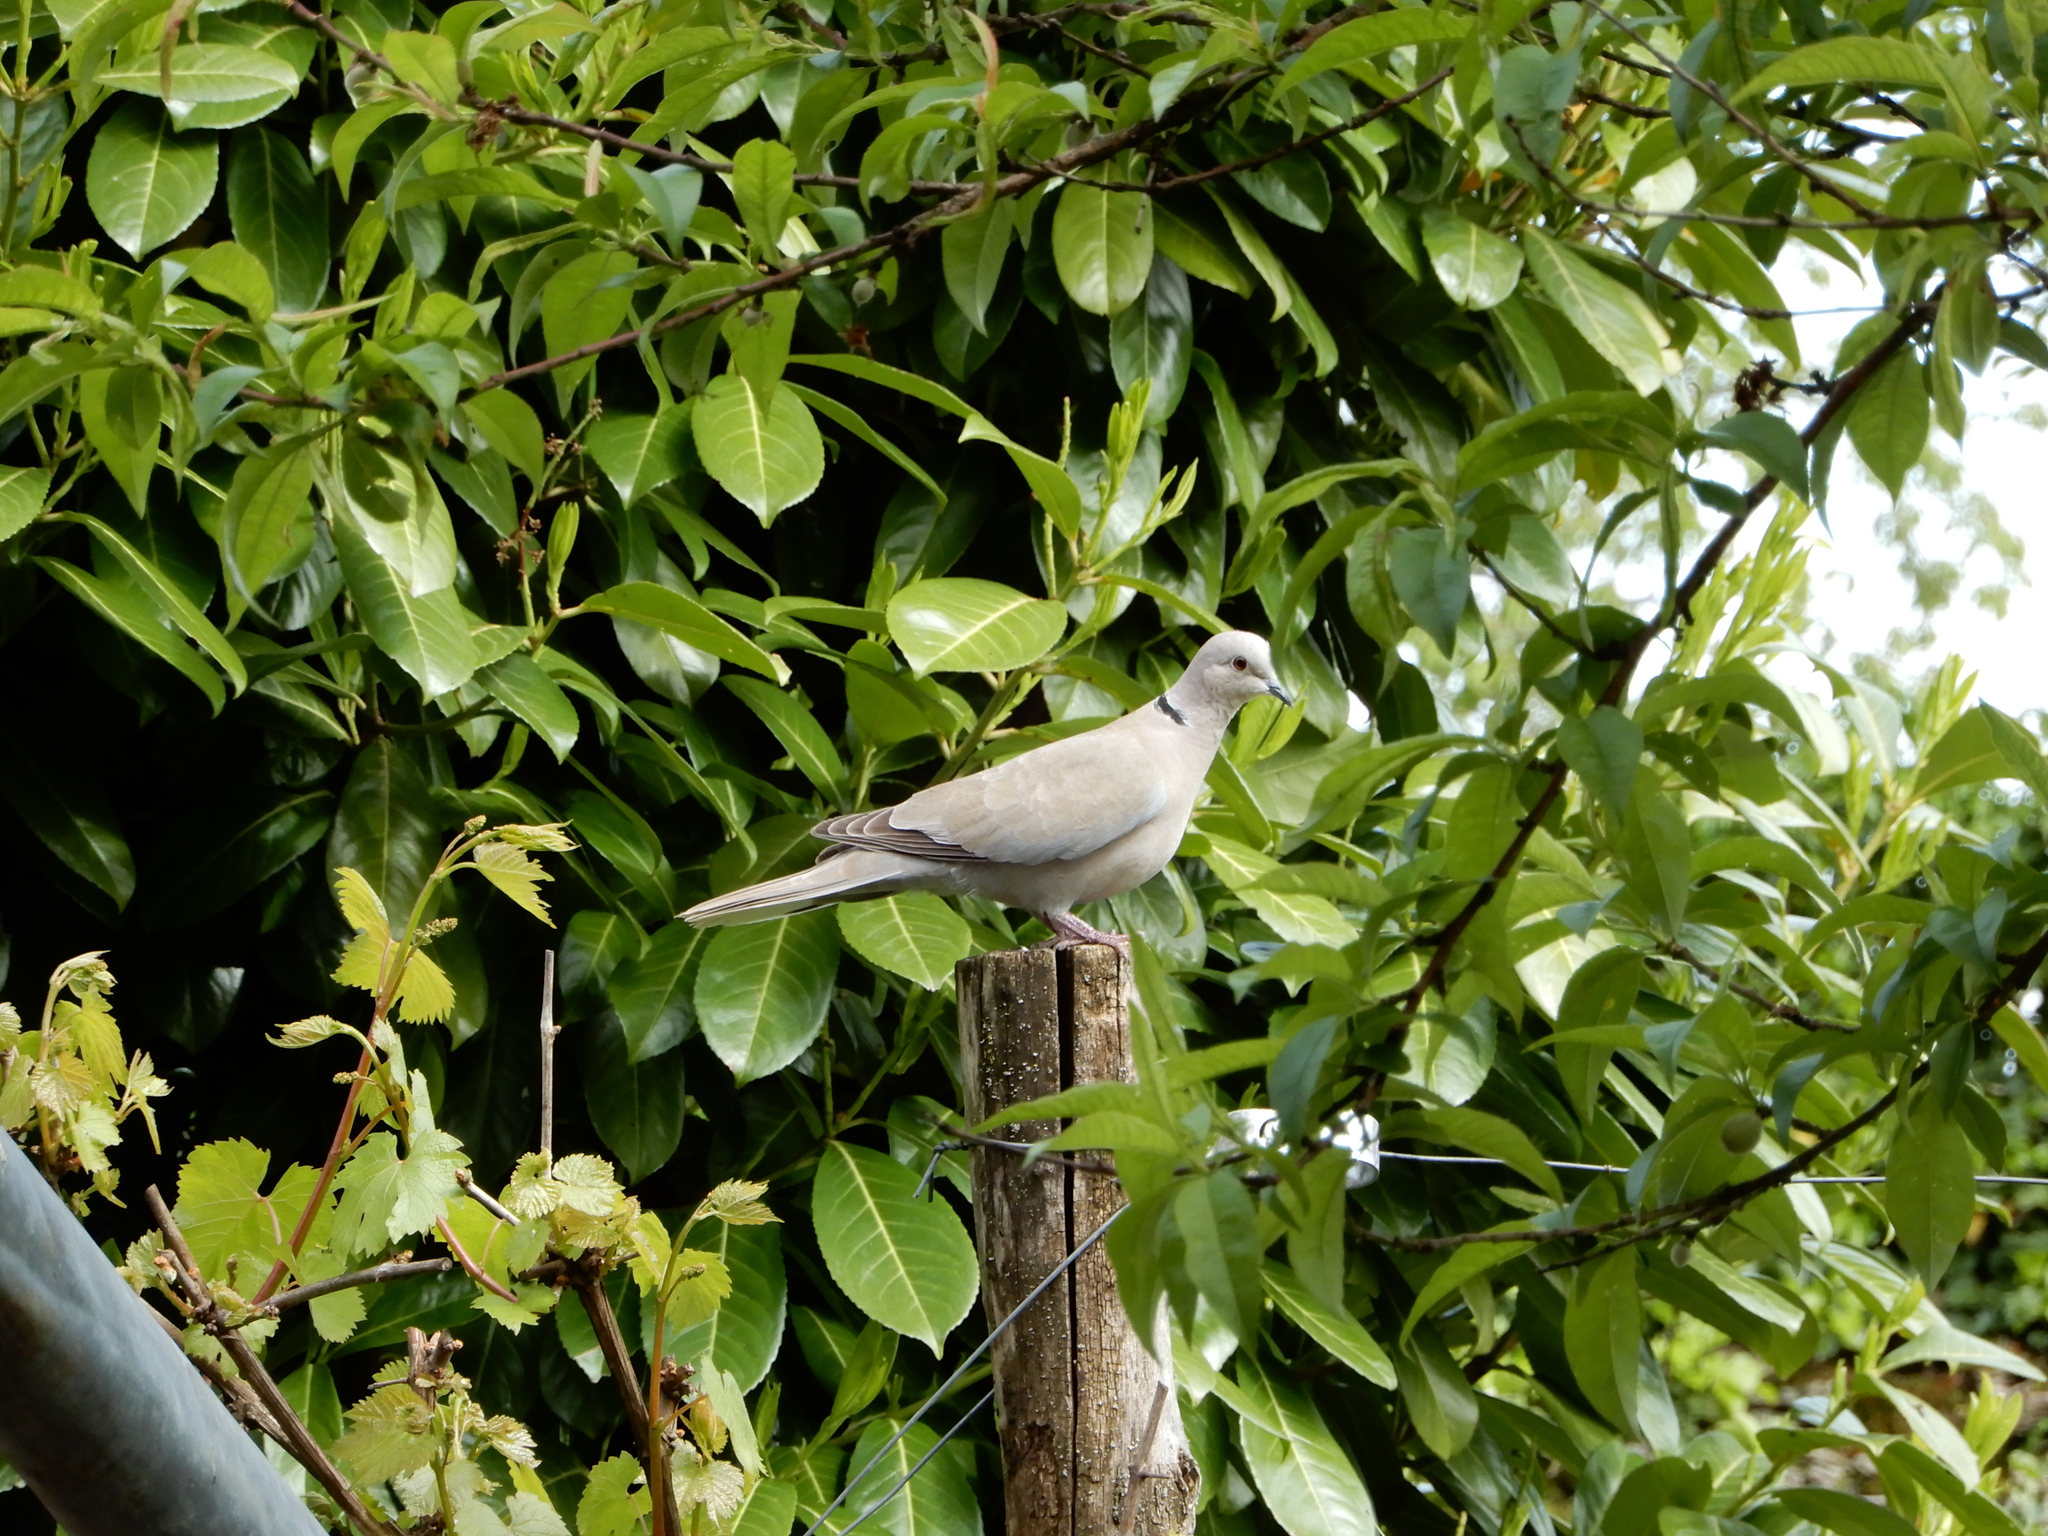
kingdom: Animalia
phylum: Chordata
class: Aves
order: Columbiformes
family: Columbidae
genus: Streptopelia
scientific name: Streptopelia decaocto
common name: Eurasian collared dove
